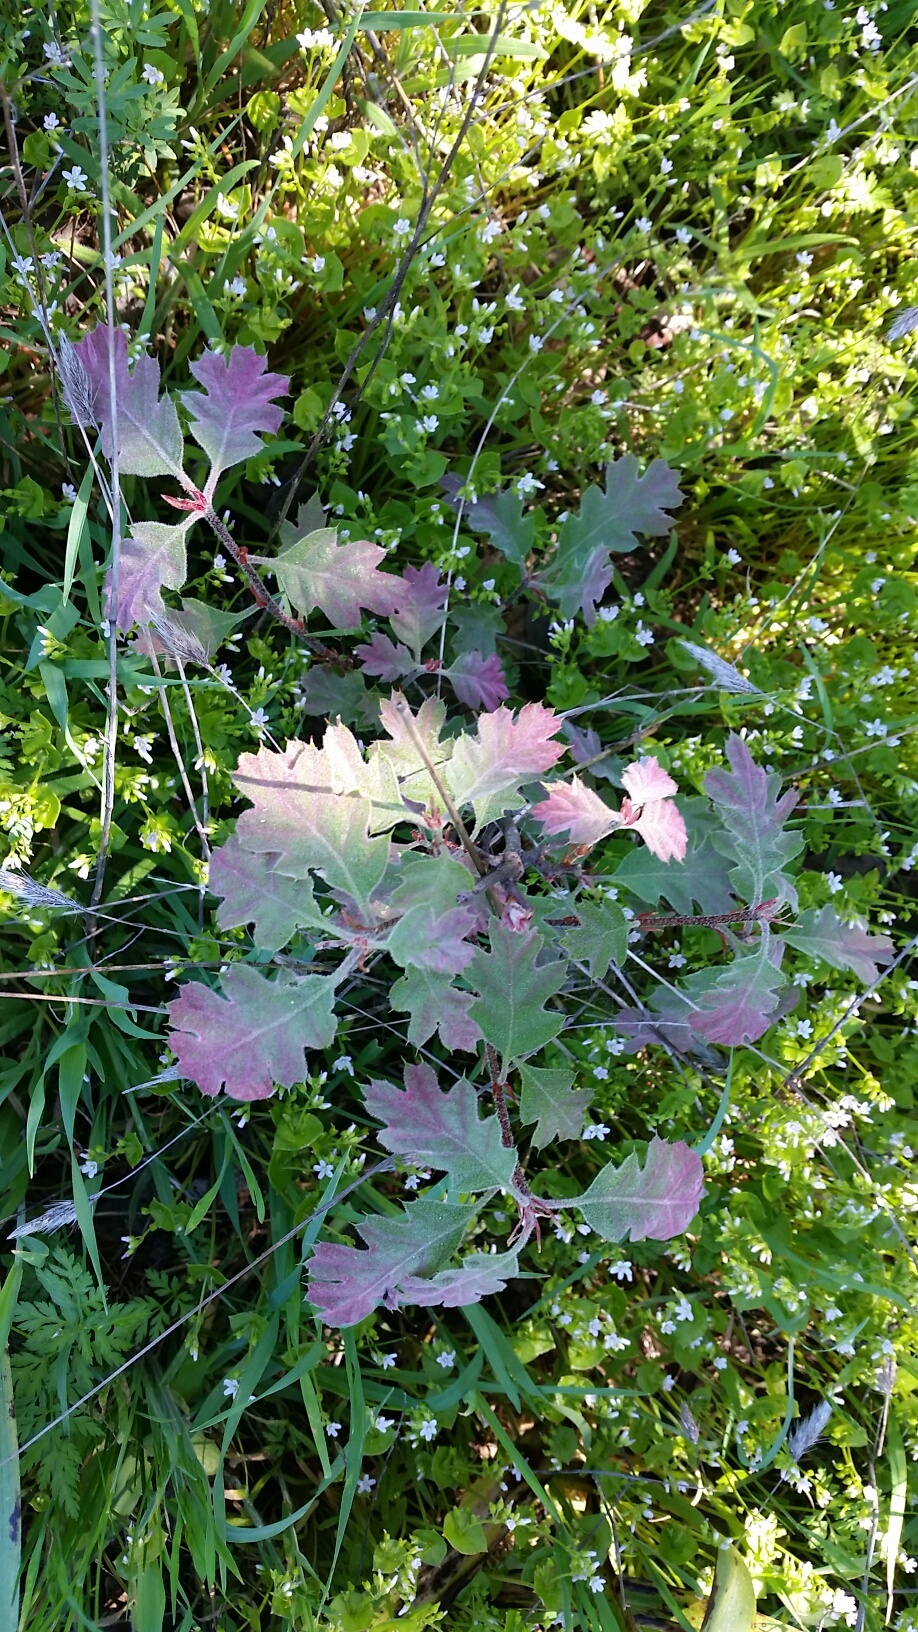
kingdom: Plantae
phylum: Tracheophyta
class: Magnoliopsida
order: Fagales
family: Fagaceae
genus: Quercus
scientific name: Quercus kelloggii
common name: California black oak
